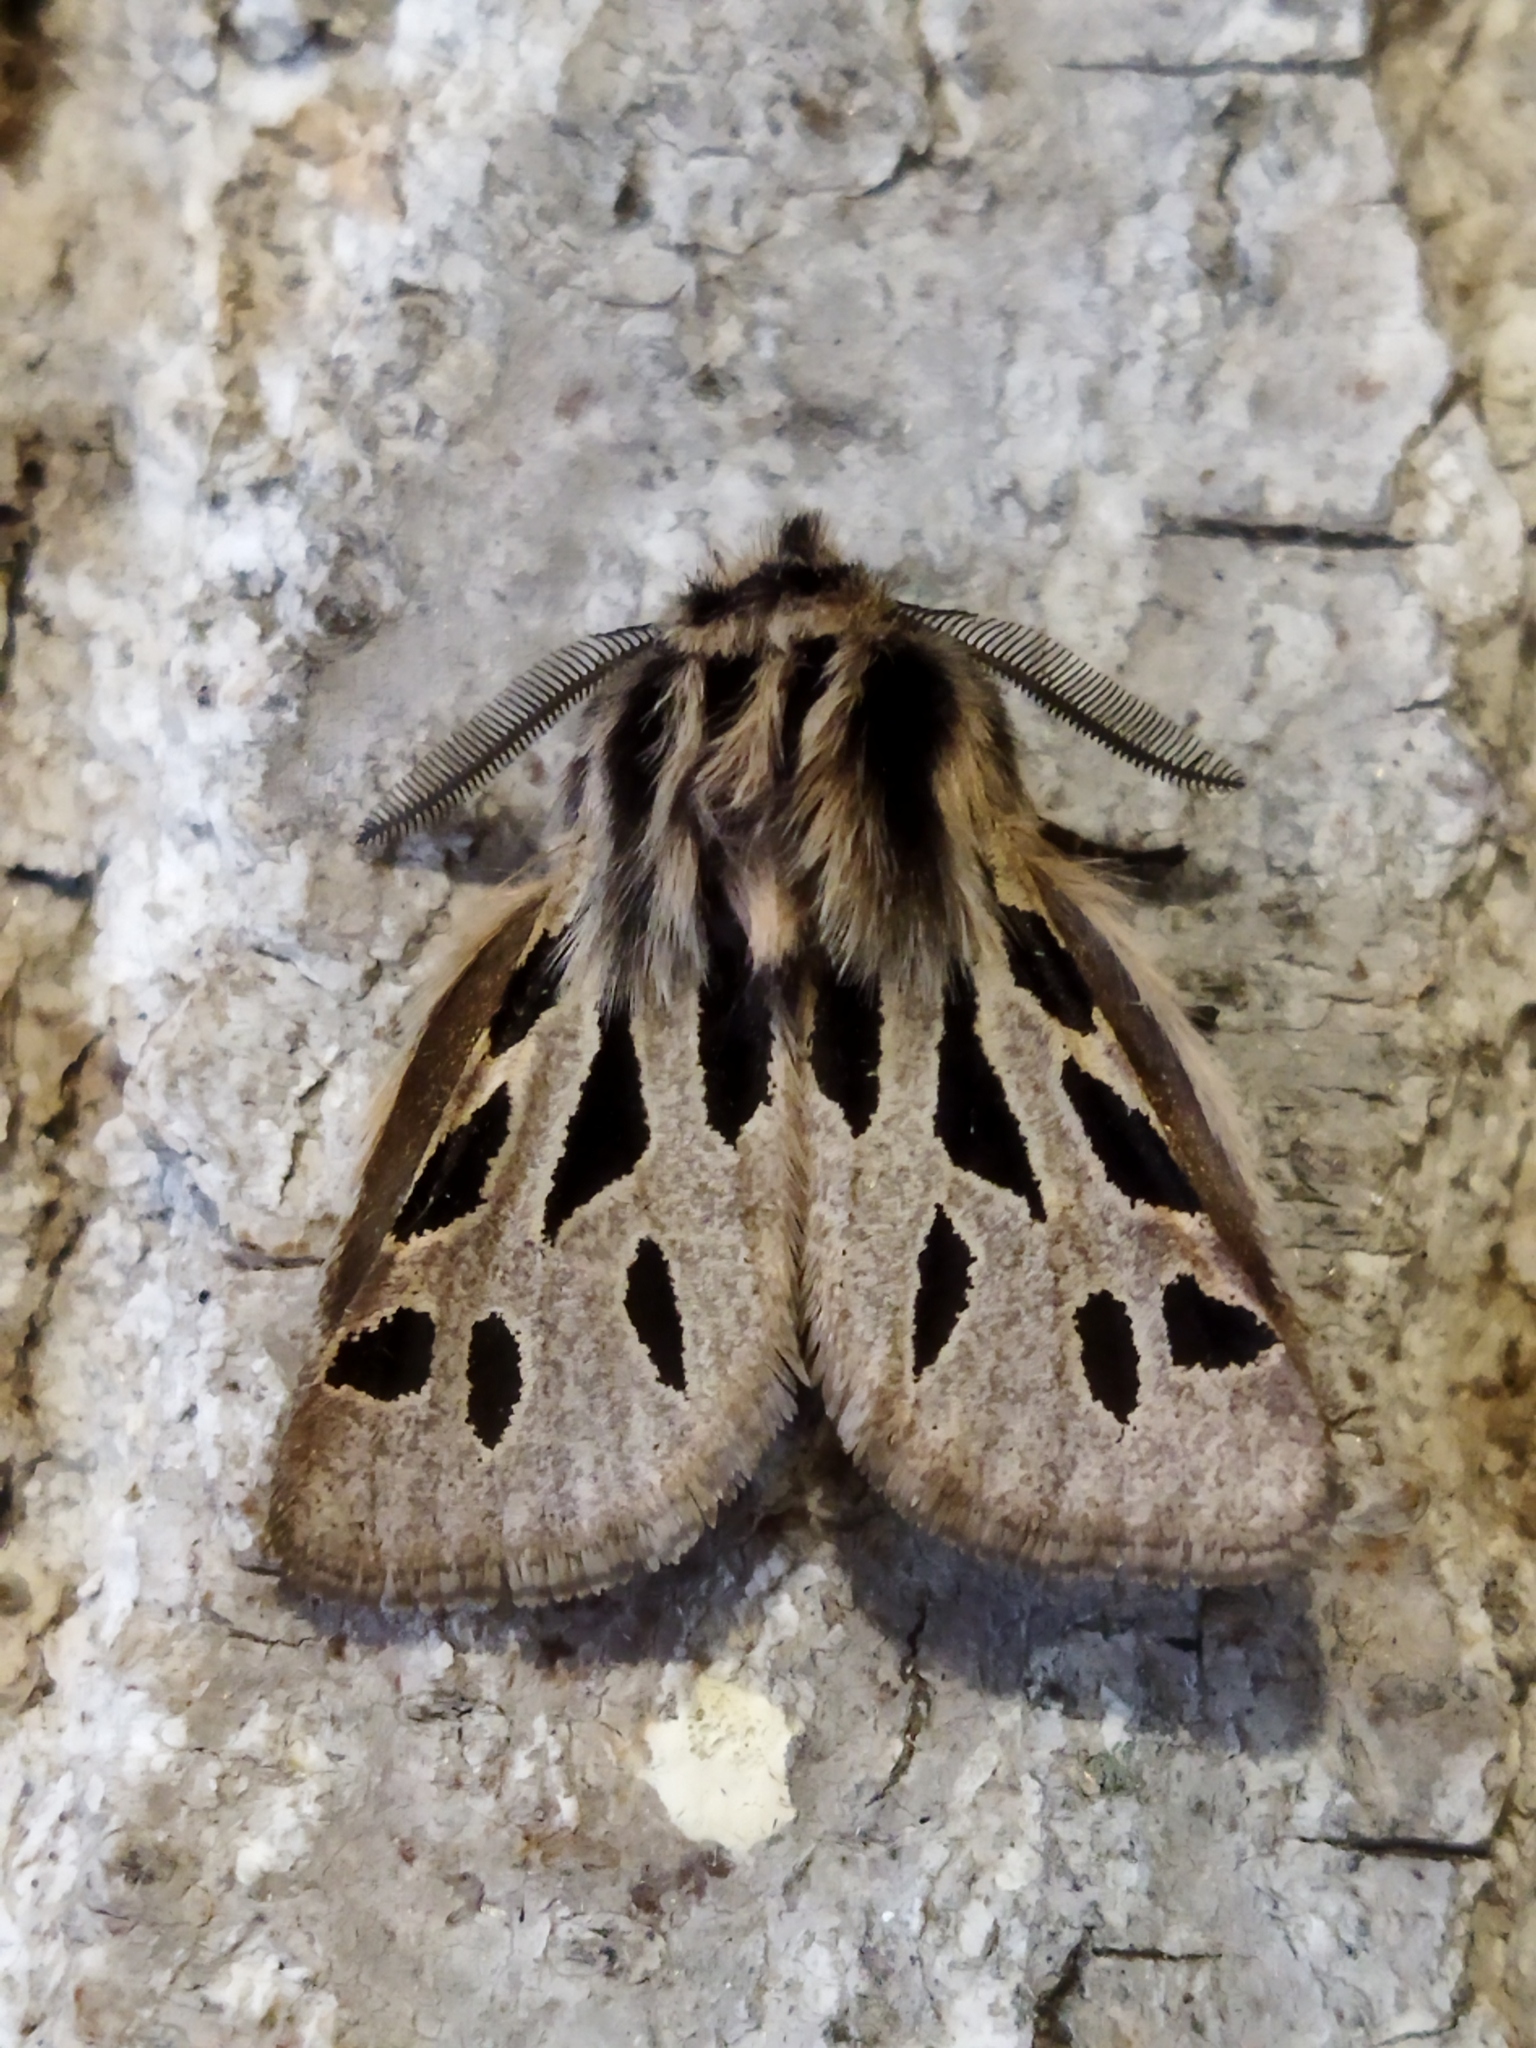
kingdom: Animalia
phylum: Arthropoda
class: Insecta
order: Lepidoptera
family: Erebidae
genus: Ocnogyna
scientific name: Ocnogyna parasita
